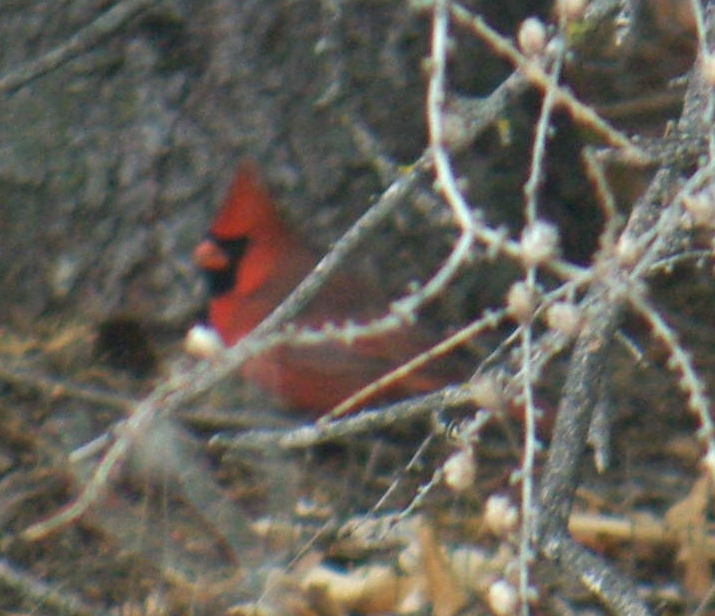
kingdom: Animalia
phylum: Chordata
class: Aves
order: Passeriformes
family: Cardinalidae
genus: Cardinalis
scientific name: Cardinalis cardinalis
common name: Northern cardinal
